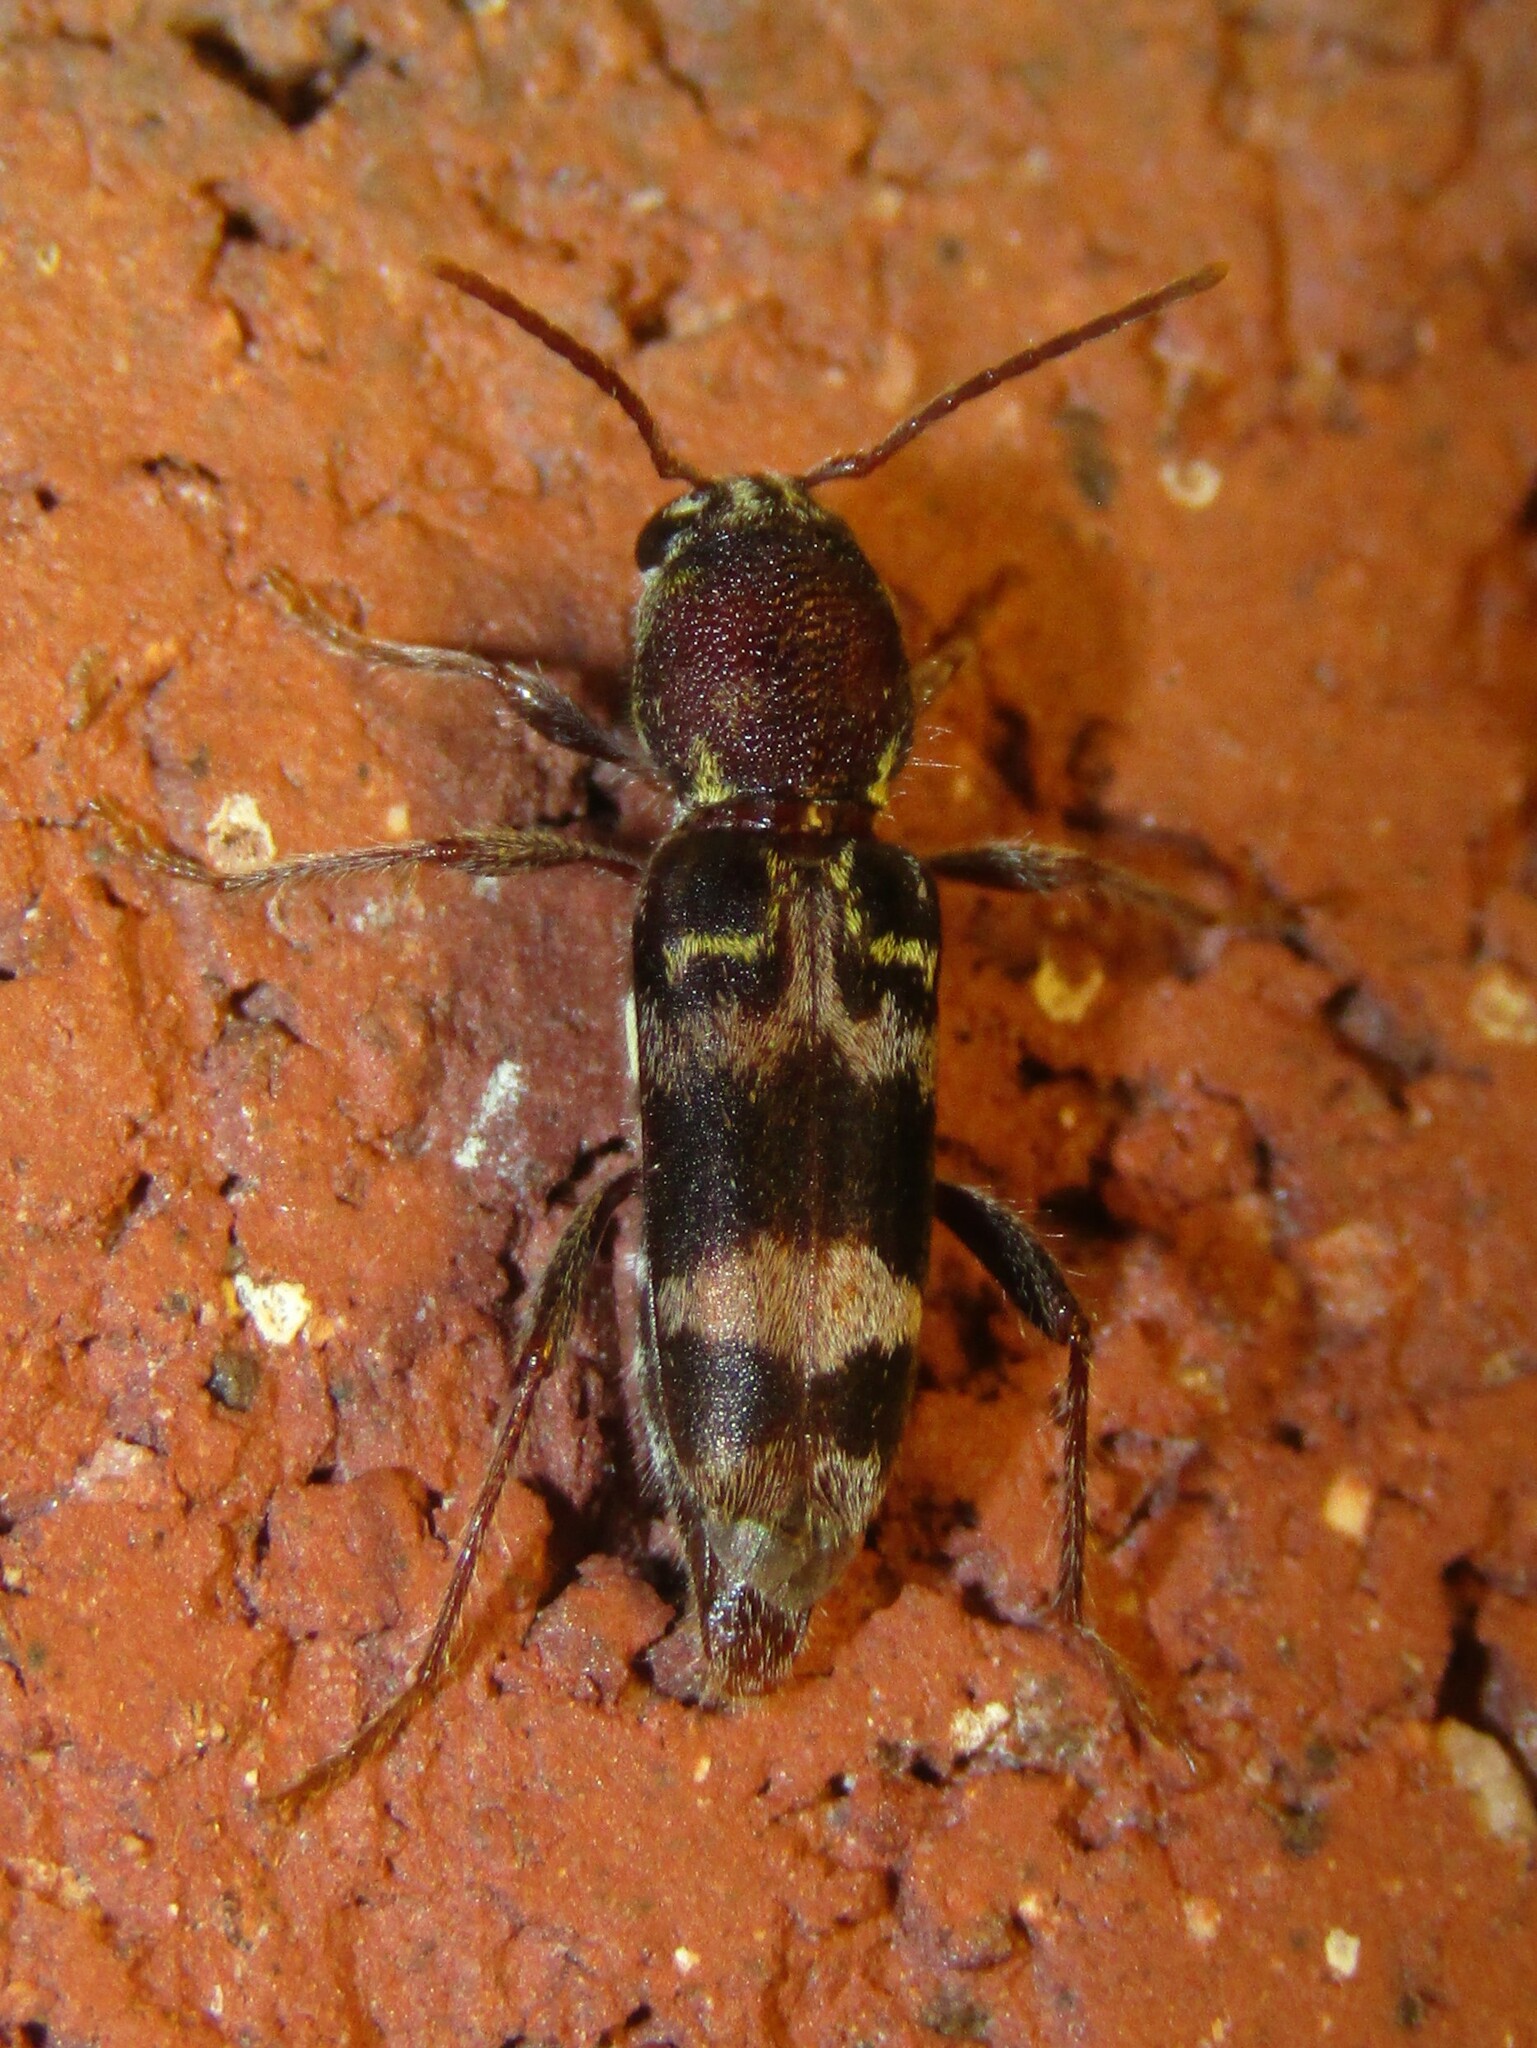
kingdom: Animalia
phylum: Arthropoda
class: Insecta
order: Coleoptera
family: Cerambycidae
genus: Xylotrechus
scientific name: Xylotrechus colonus
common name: Long-horned beetle
